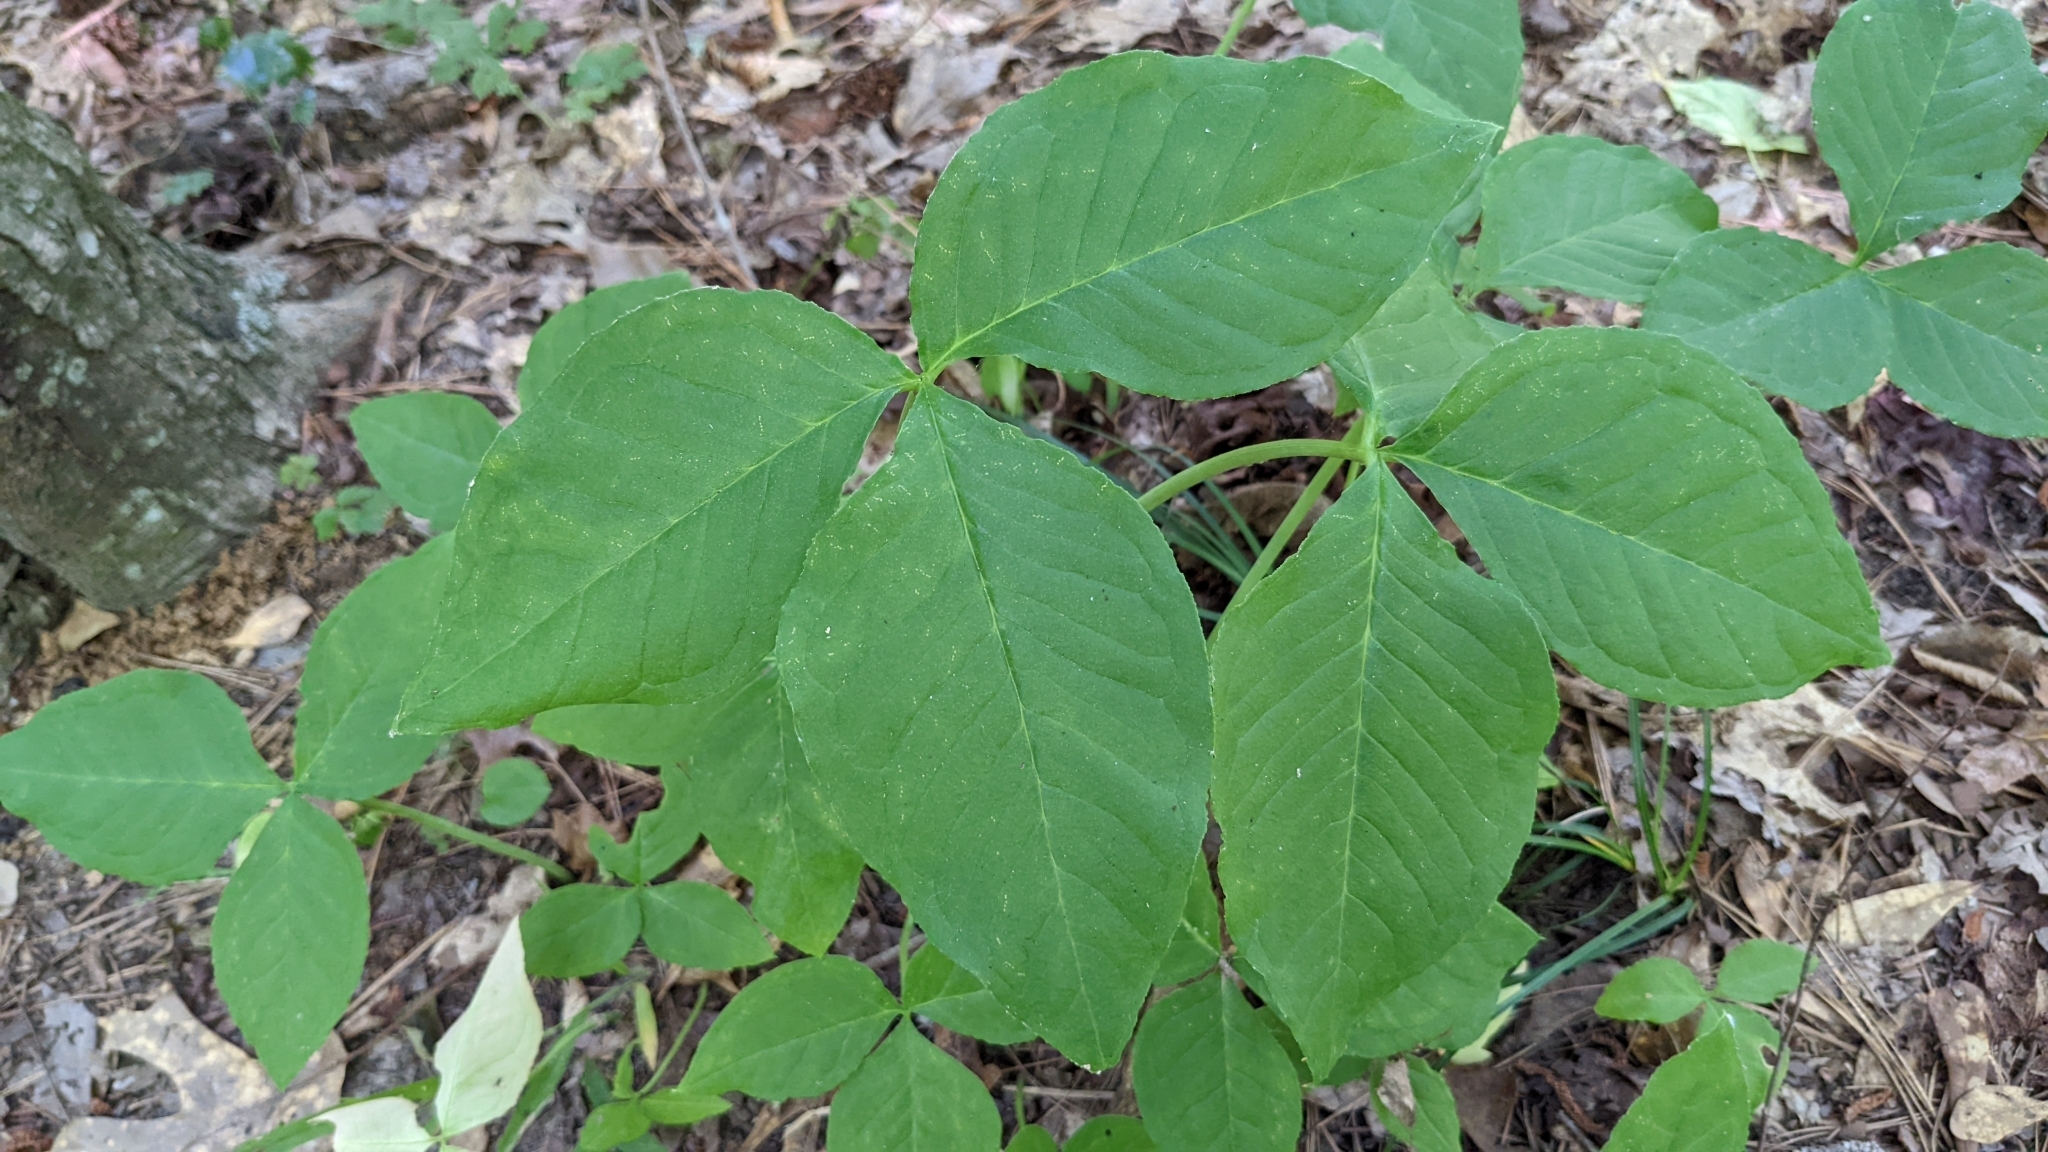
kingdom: Plantae
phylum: Tracheophyta
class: Liliopsida
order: Alismatales
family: Araceae
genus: Arisaema
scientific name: Arisaema triphyllum
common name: Jack-in-the-pulpit
